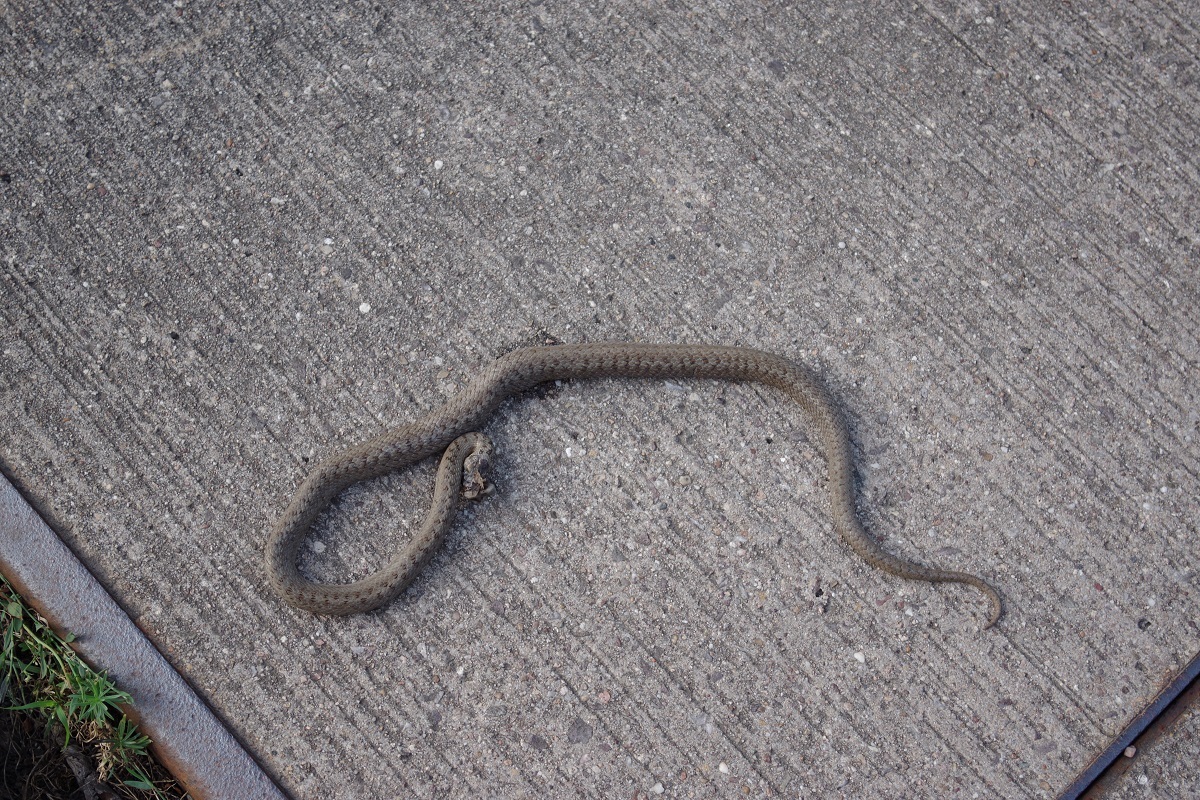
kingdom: Animalia
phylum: Chordata
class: Squamata
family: Colubridae
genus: Coronella
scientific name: Coronella austriaca
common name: Smooth snake
